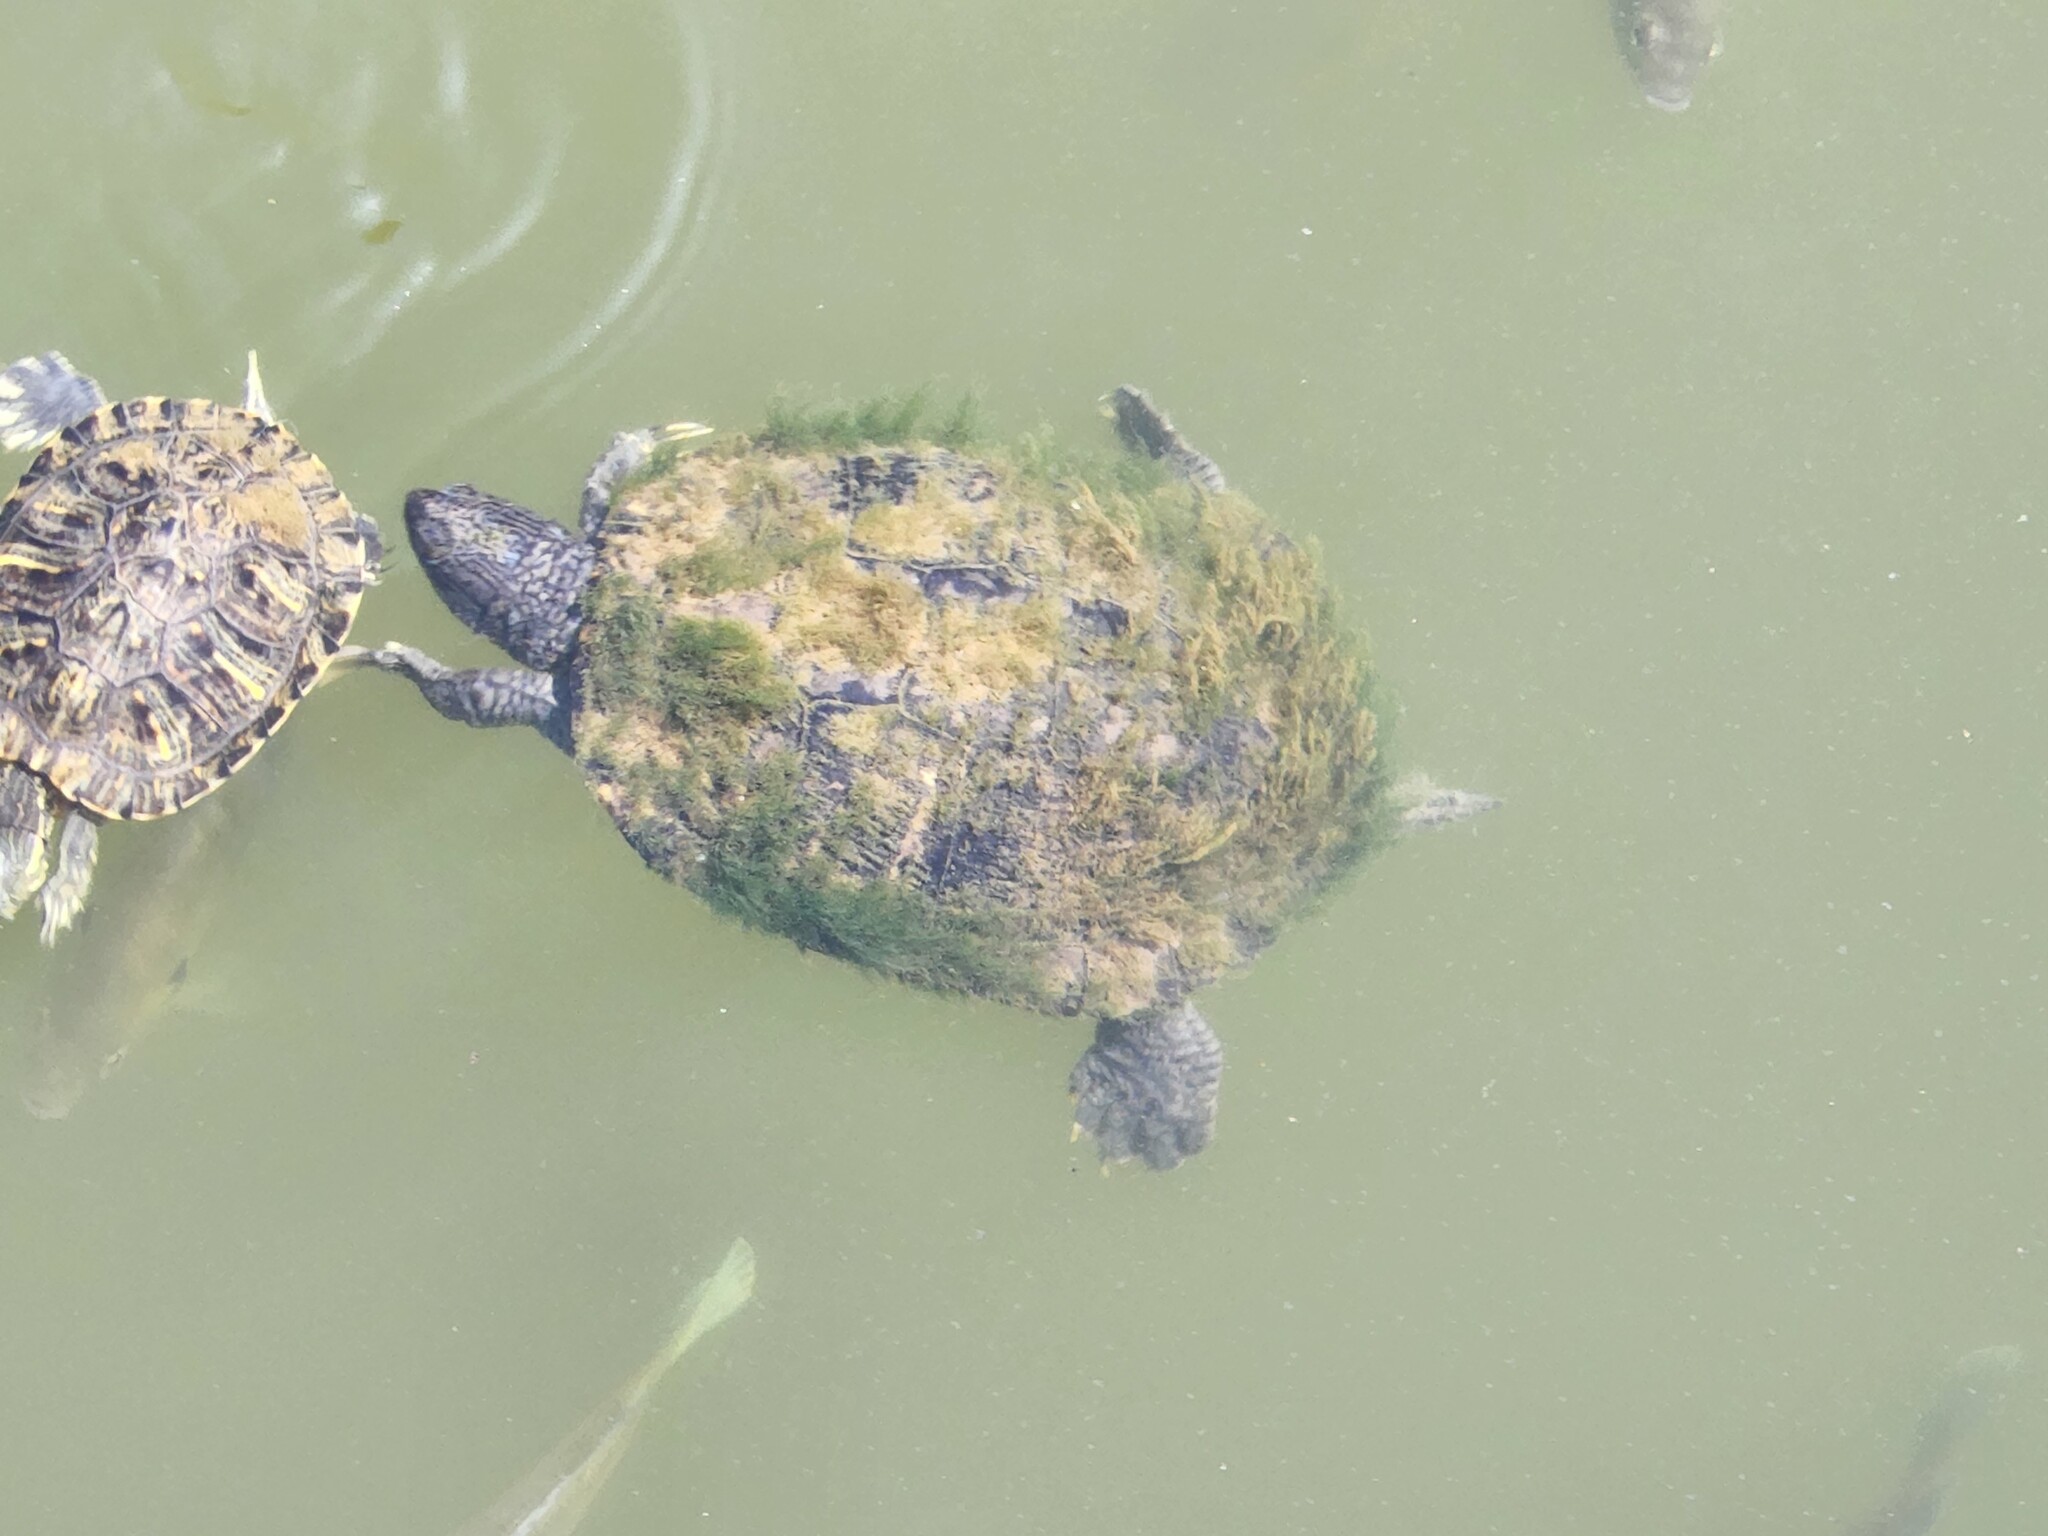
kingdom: Animalia
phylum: Chordata
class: Testudines
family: Emydidae
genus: Trachemys
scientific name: Trachemys scripta
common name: Slider
